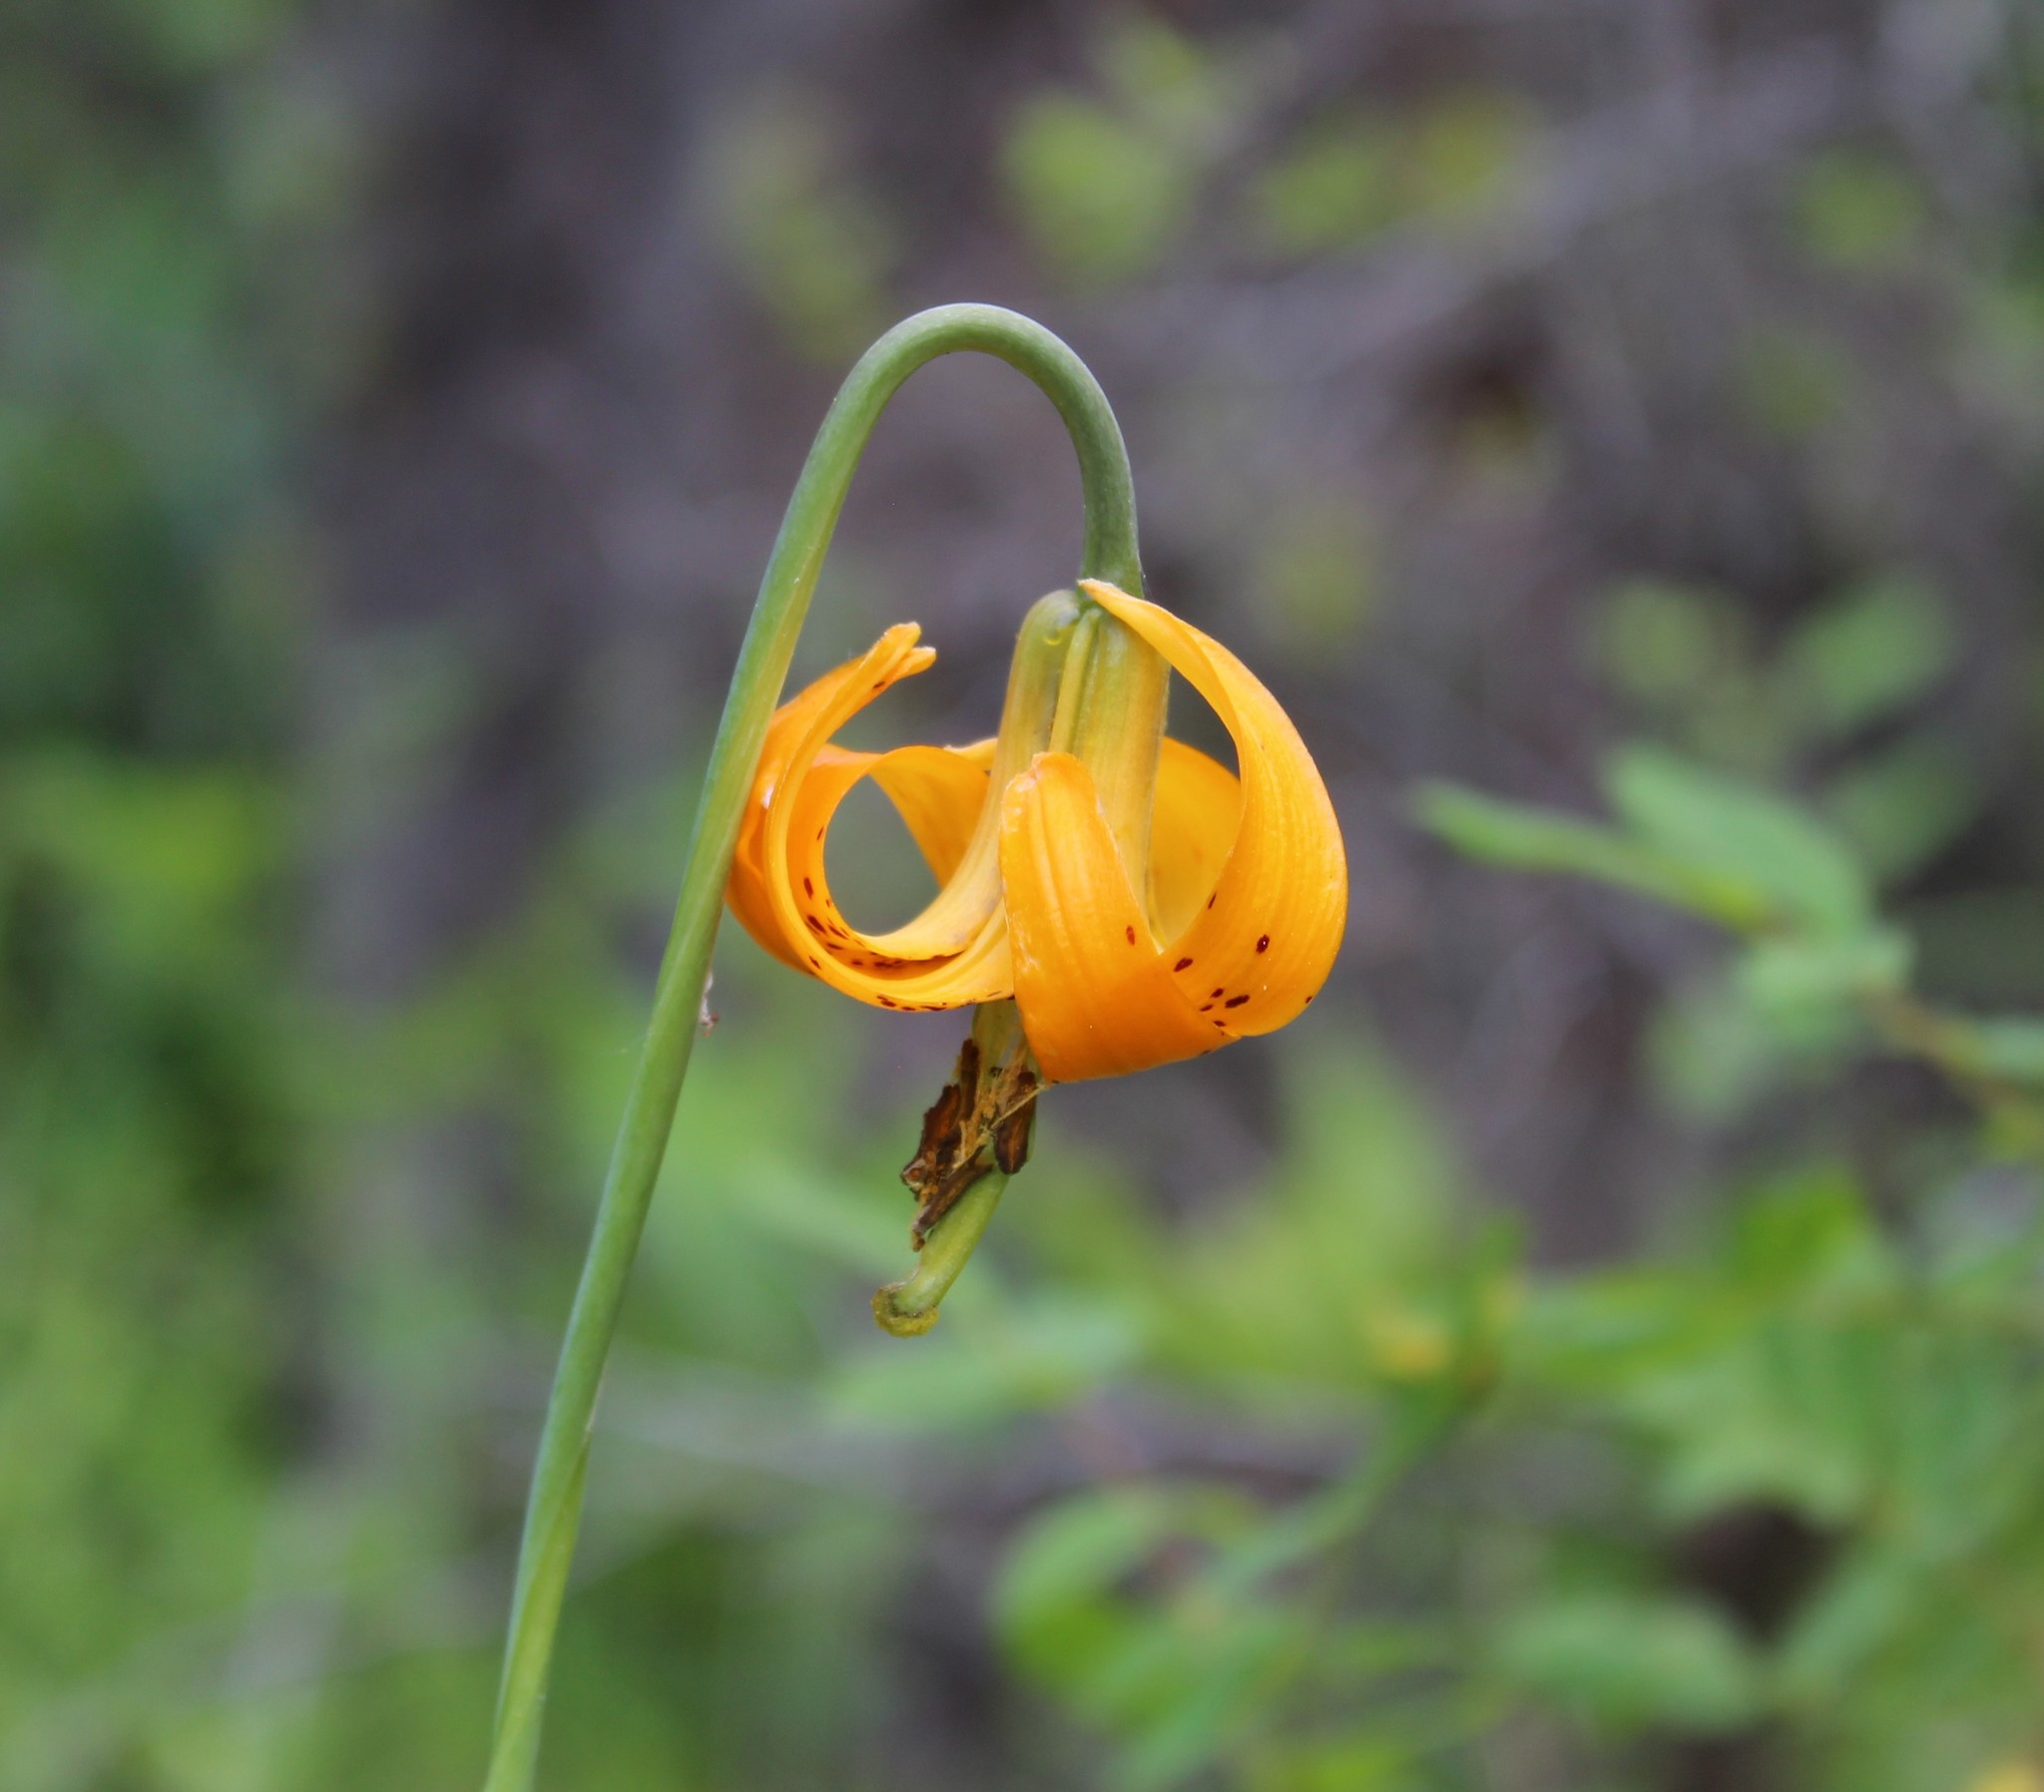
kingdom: Plantae
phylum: Tracheophyta
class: Liliopsida
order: Liliales
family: Liliaceae
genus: Lilium
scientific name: Lilium columbianum
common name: Columbia lily
